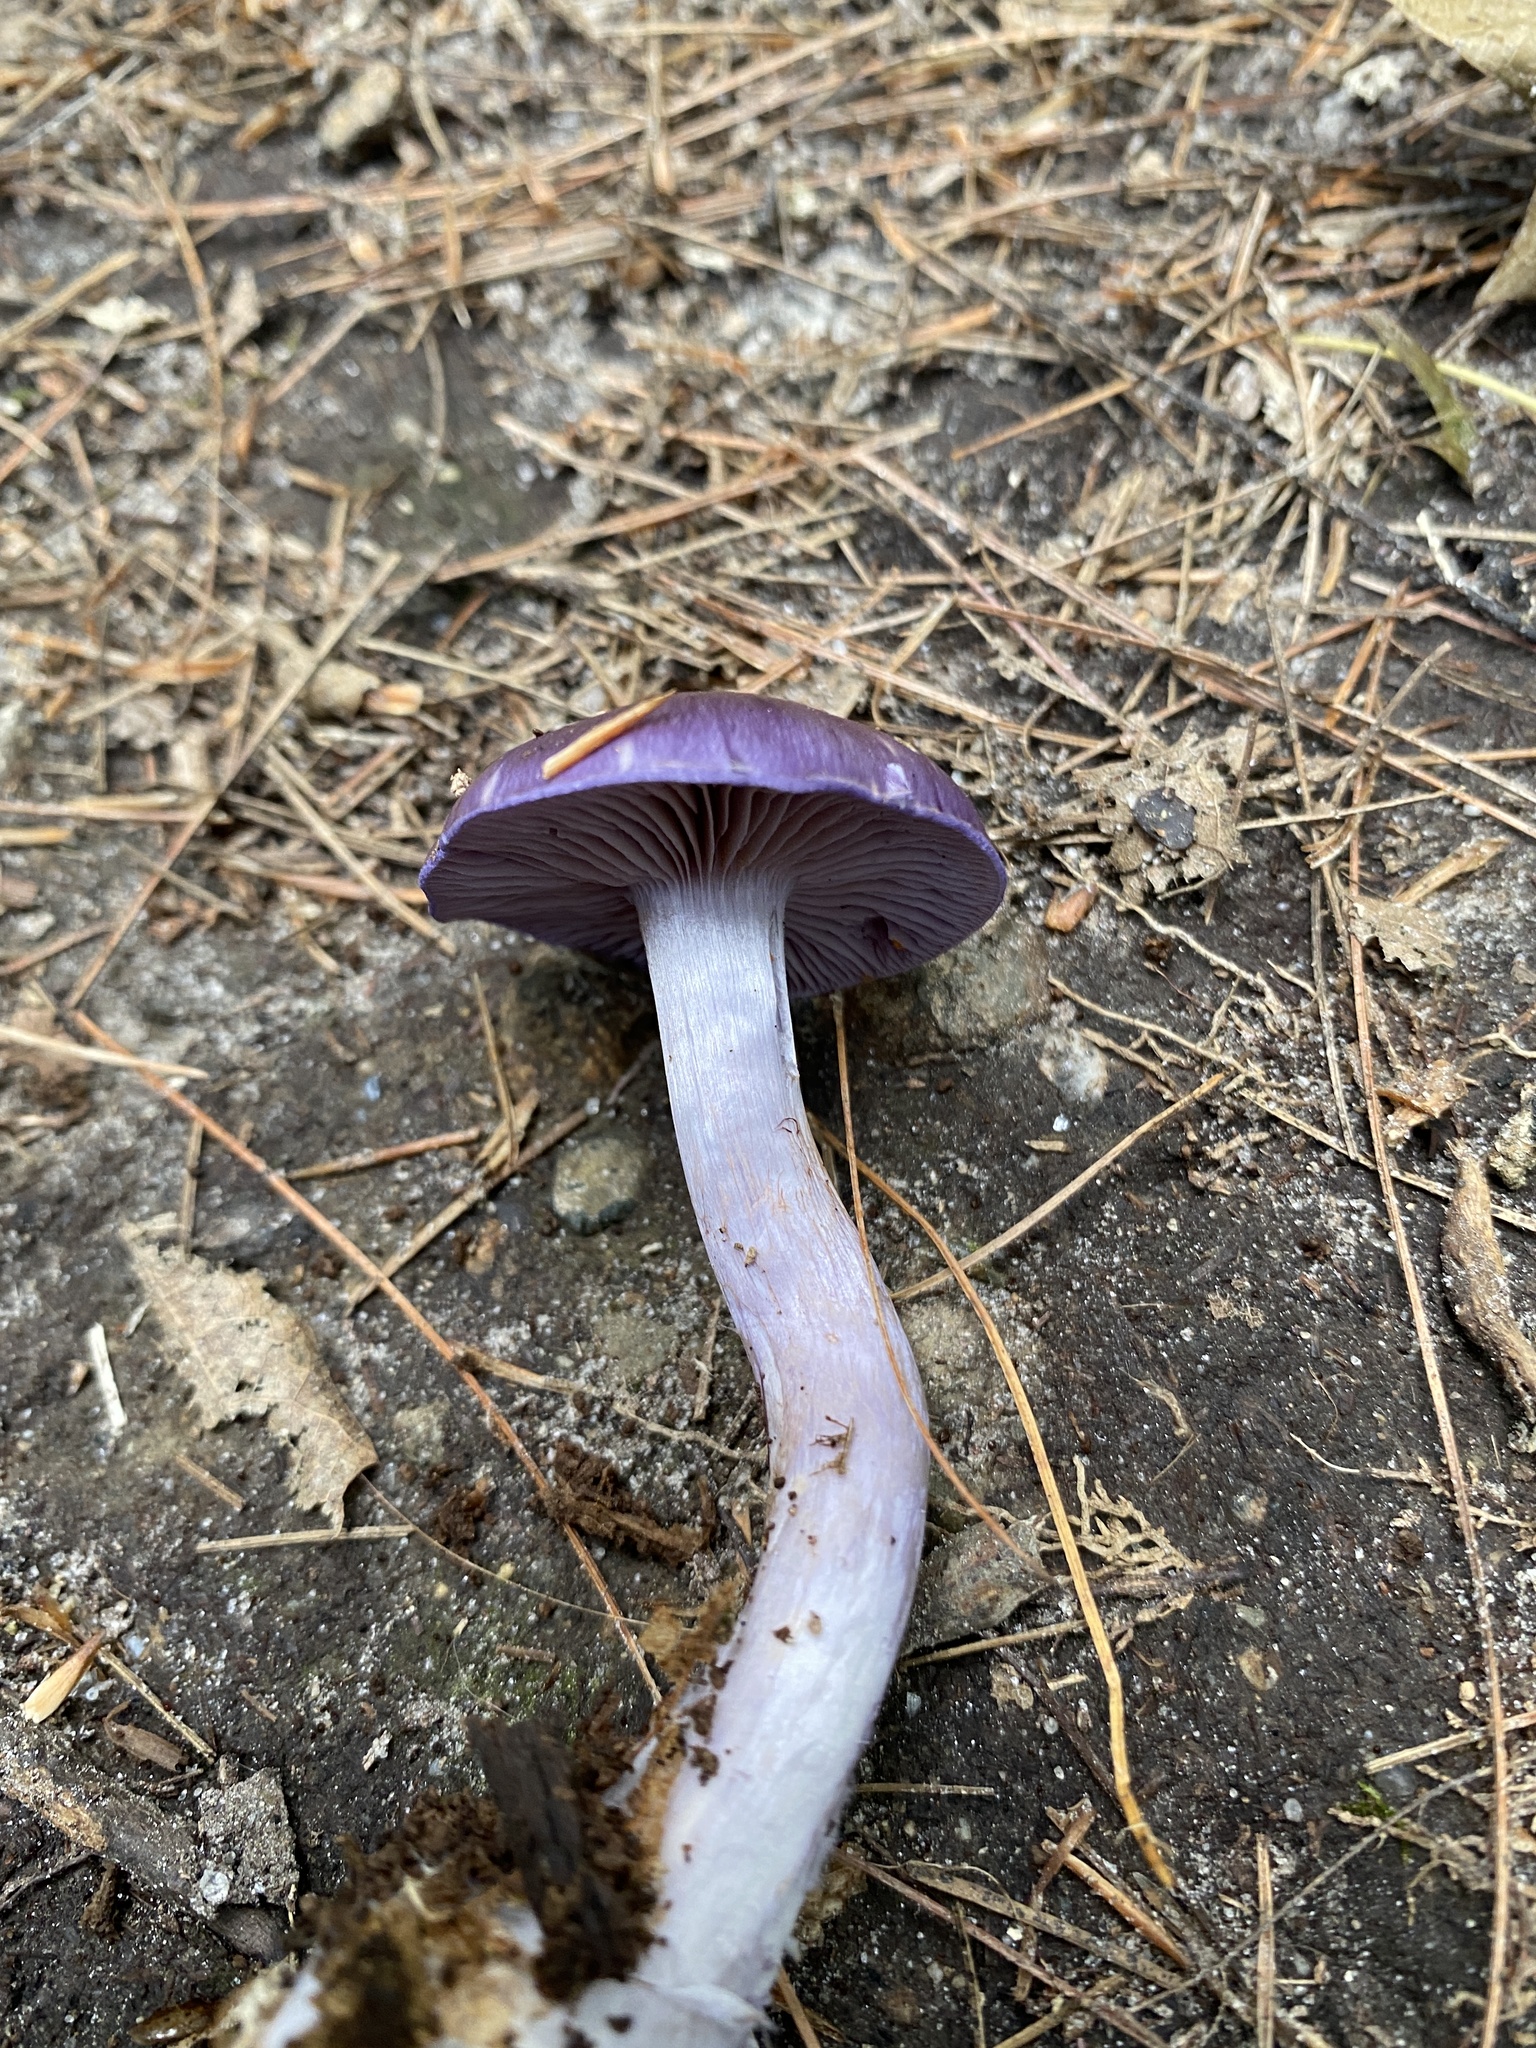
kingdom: Fungi
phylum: Basidiomycota
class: Agaricomycetes
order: Agaricales
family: Cortinariaceae
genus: Cortinarius
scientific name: Cortinarius iodes
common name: Viscid violet cort
